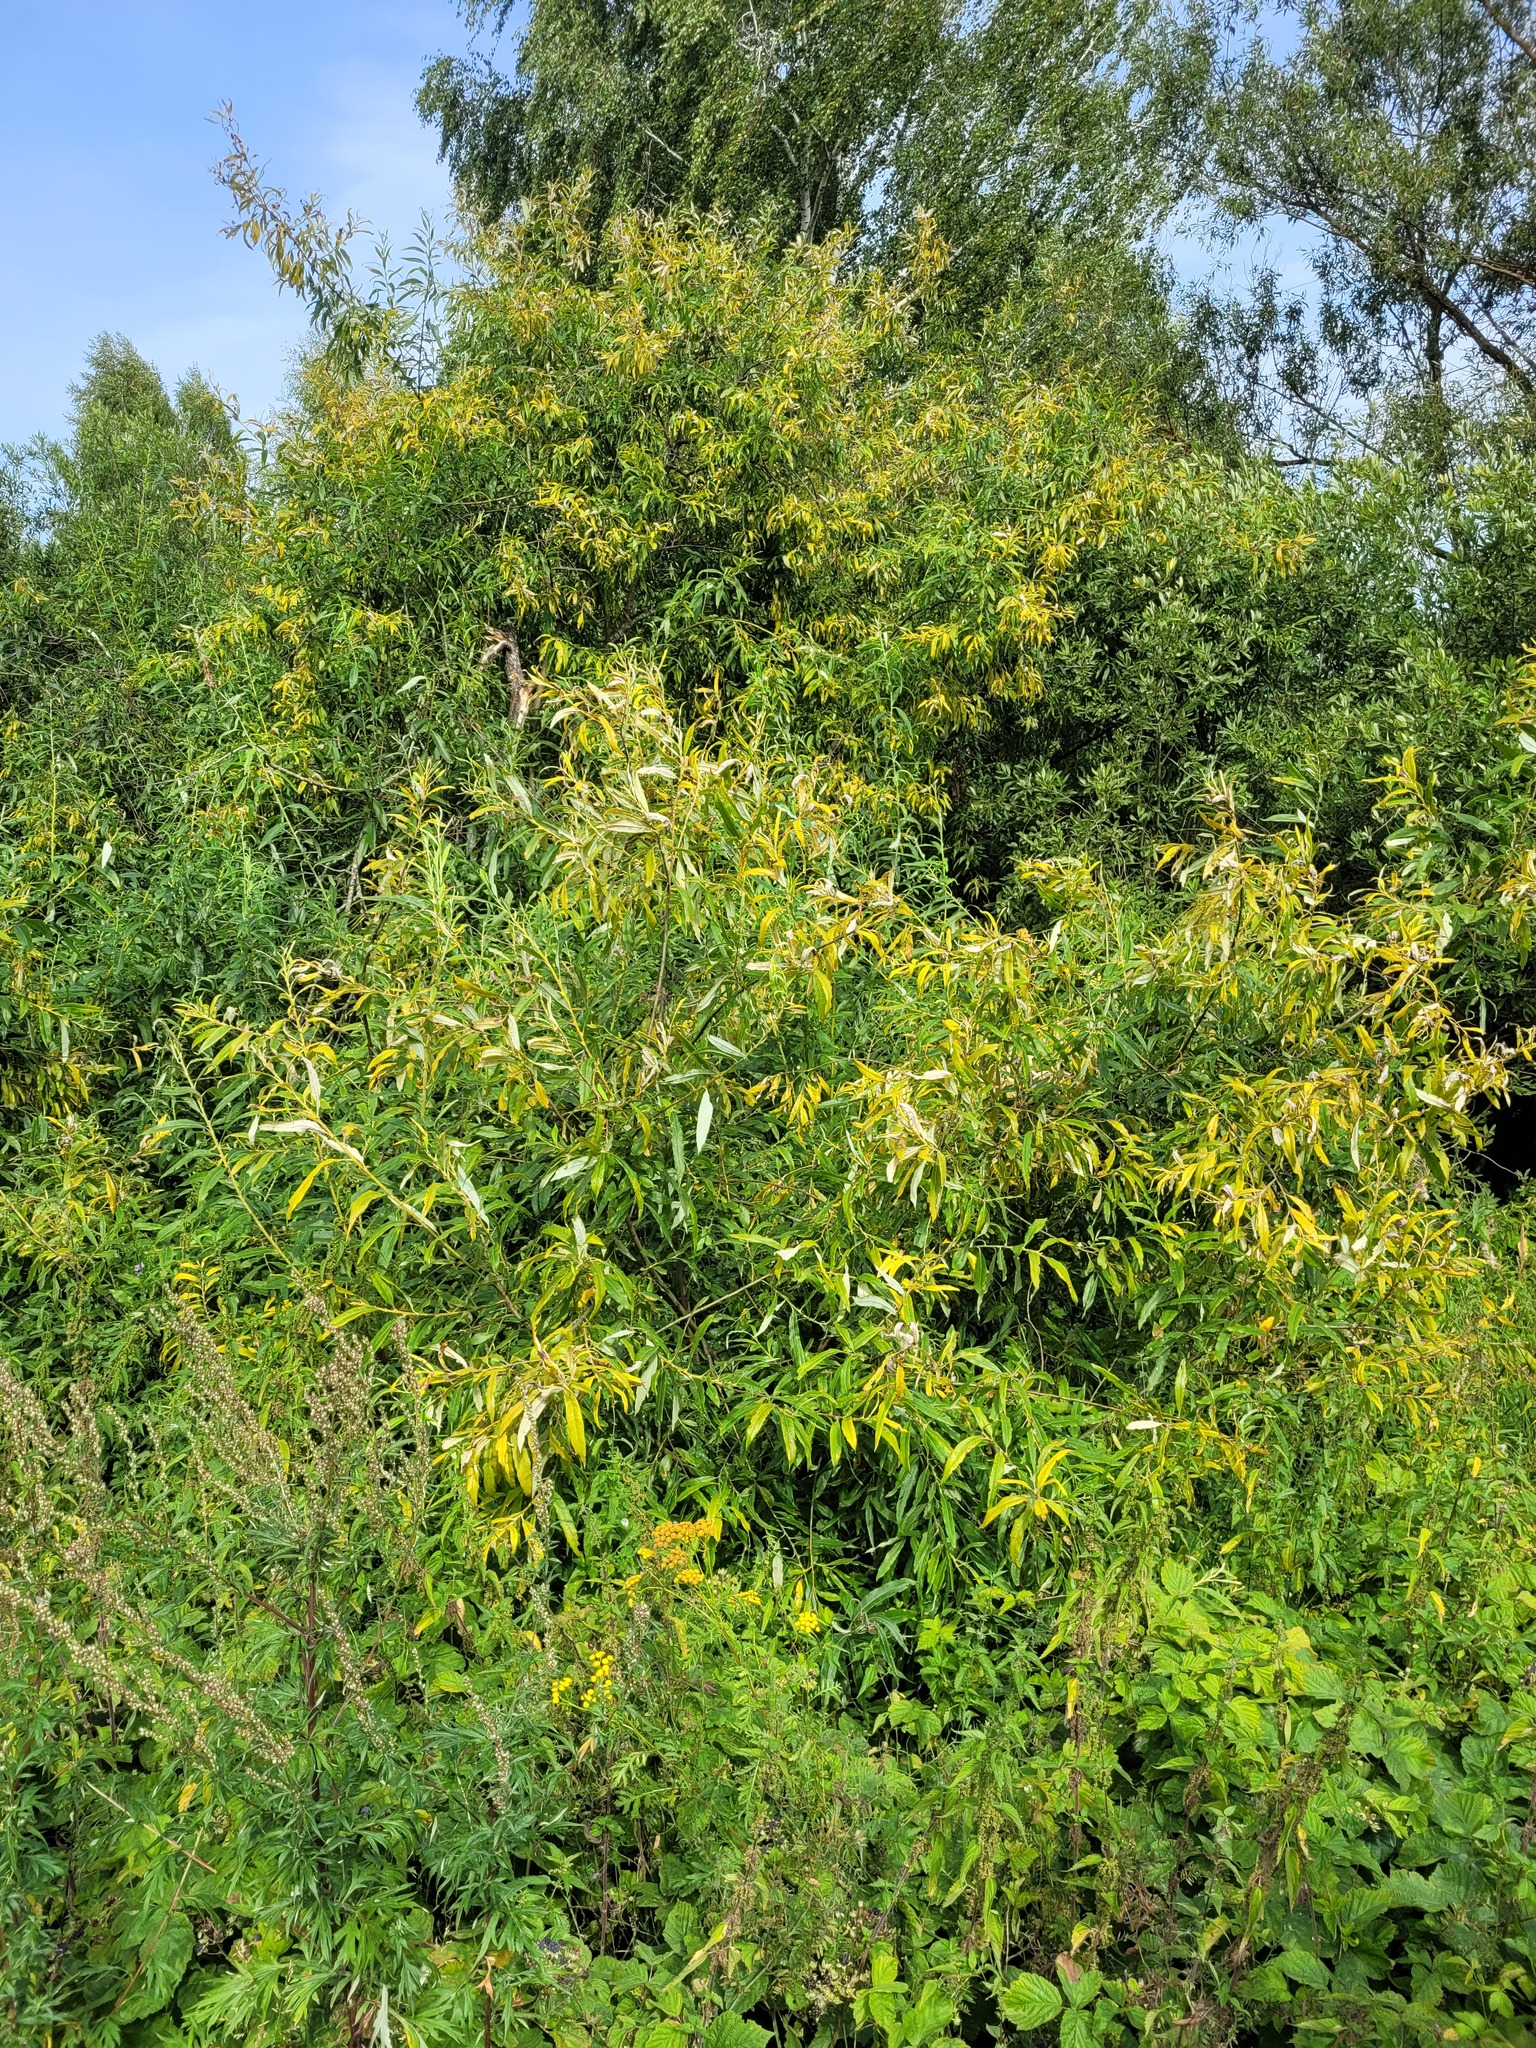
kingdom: Plantae
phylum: Tracheophyta
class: Magnoliopsida
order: Malpighiales
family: Salicaceae
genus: Salix
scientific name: Salix gmelinii
